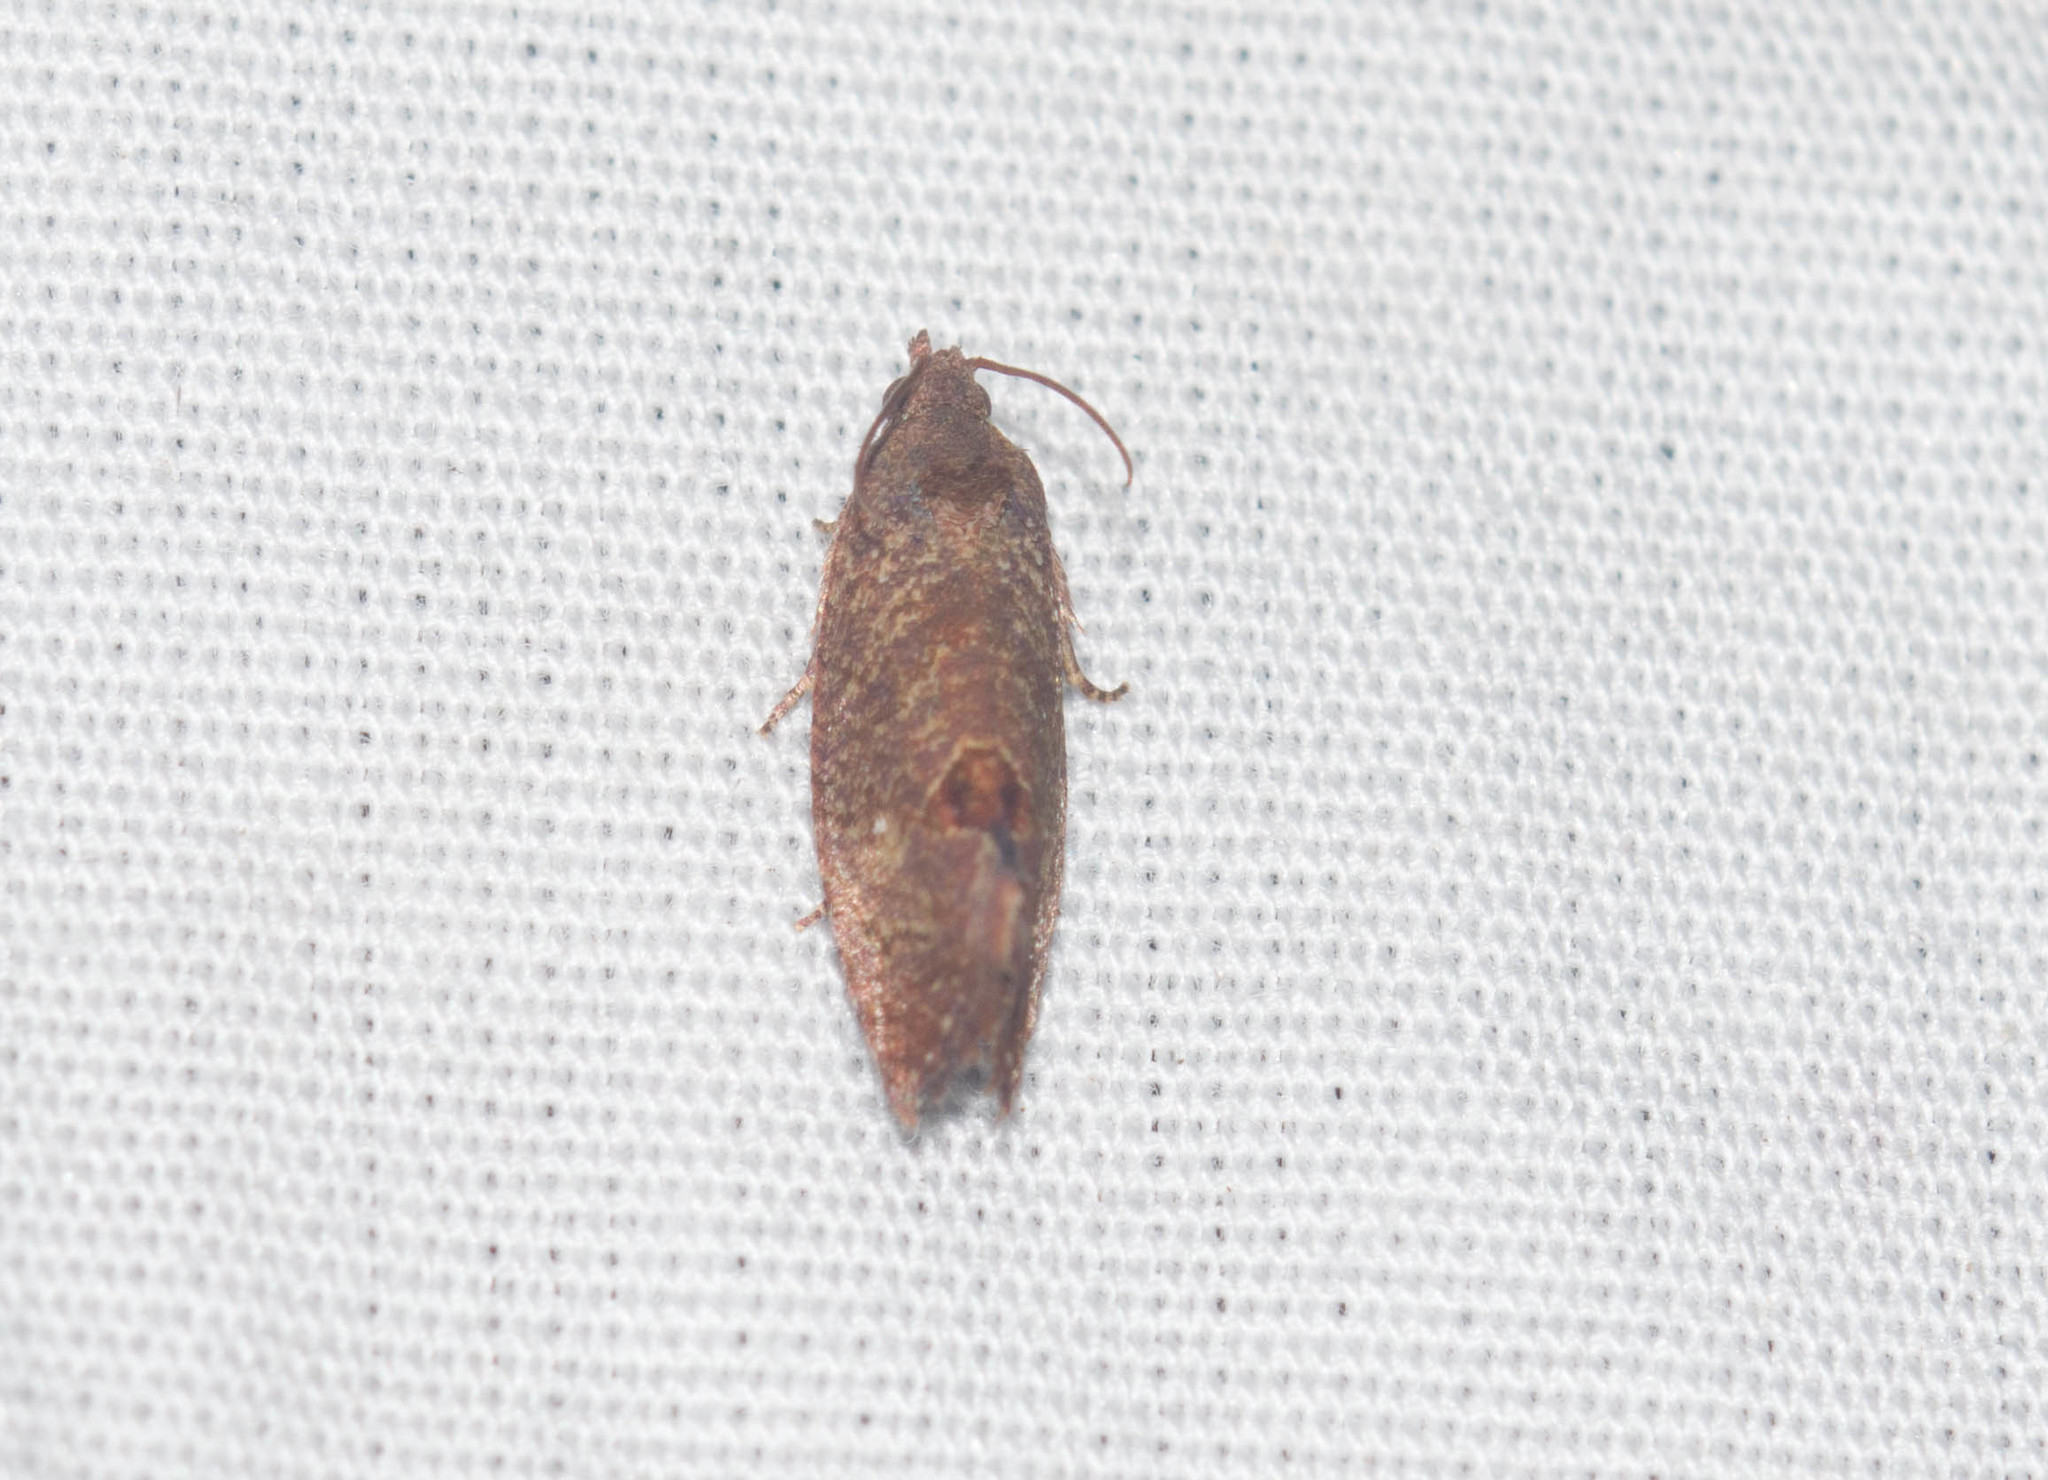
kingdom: Animalia
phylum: Arthropoda
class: Insecta
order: Lepidoptera
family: Tortricidae
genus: Cryptophlebia
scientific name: Cryptophlebia illepida
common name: Moth
